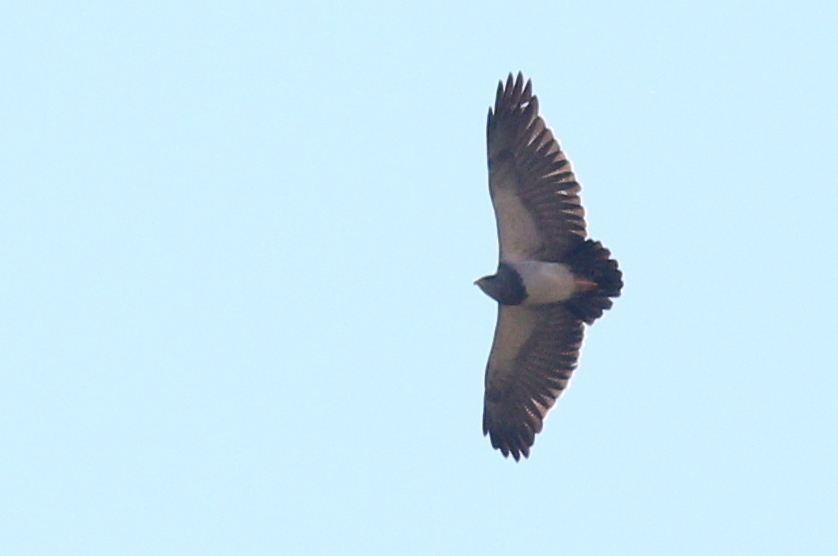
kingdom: Animalia
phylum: Chordata
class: Aves
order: Accipitriformes
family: Accipitridae
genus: Geranoaetus
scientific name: Geranoaetus melanoleucus
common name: Black-chested buzzard-eagle
